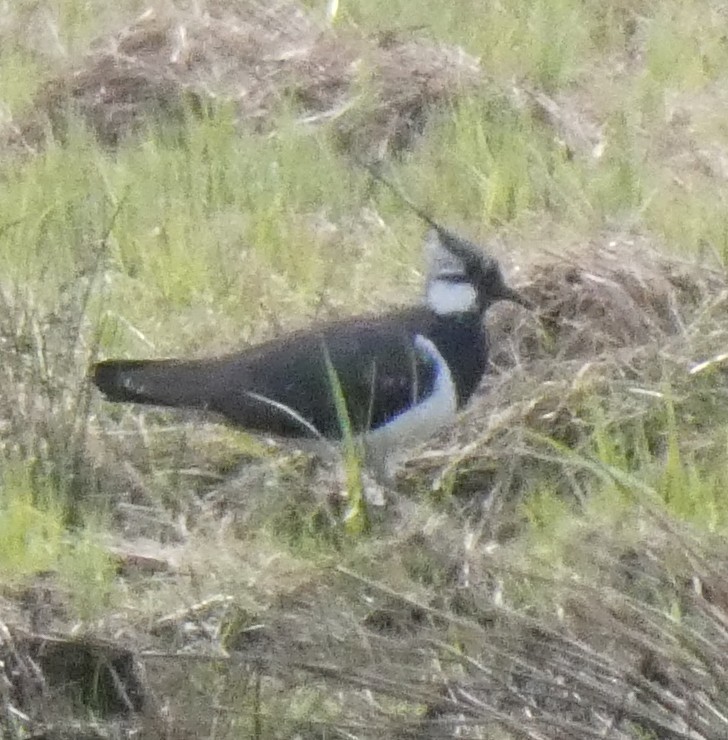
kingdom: Animalia
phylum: Chordata
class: Aves
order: Charadriiformes
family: Charadriidae
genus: Vanellus
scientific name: Vanellus vanellus
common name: Northern lapwing
